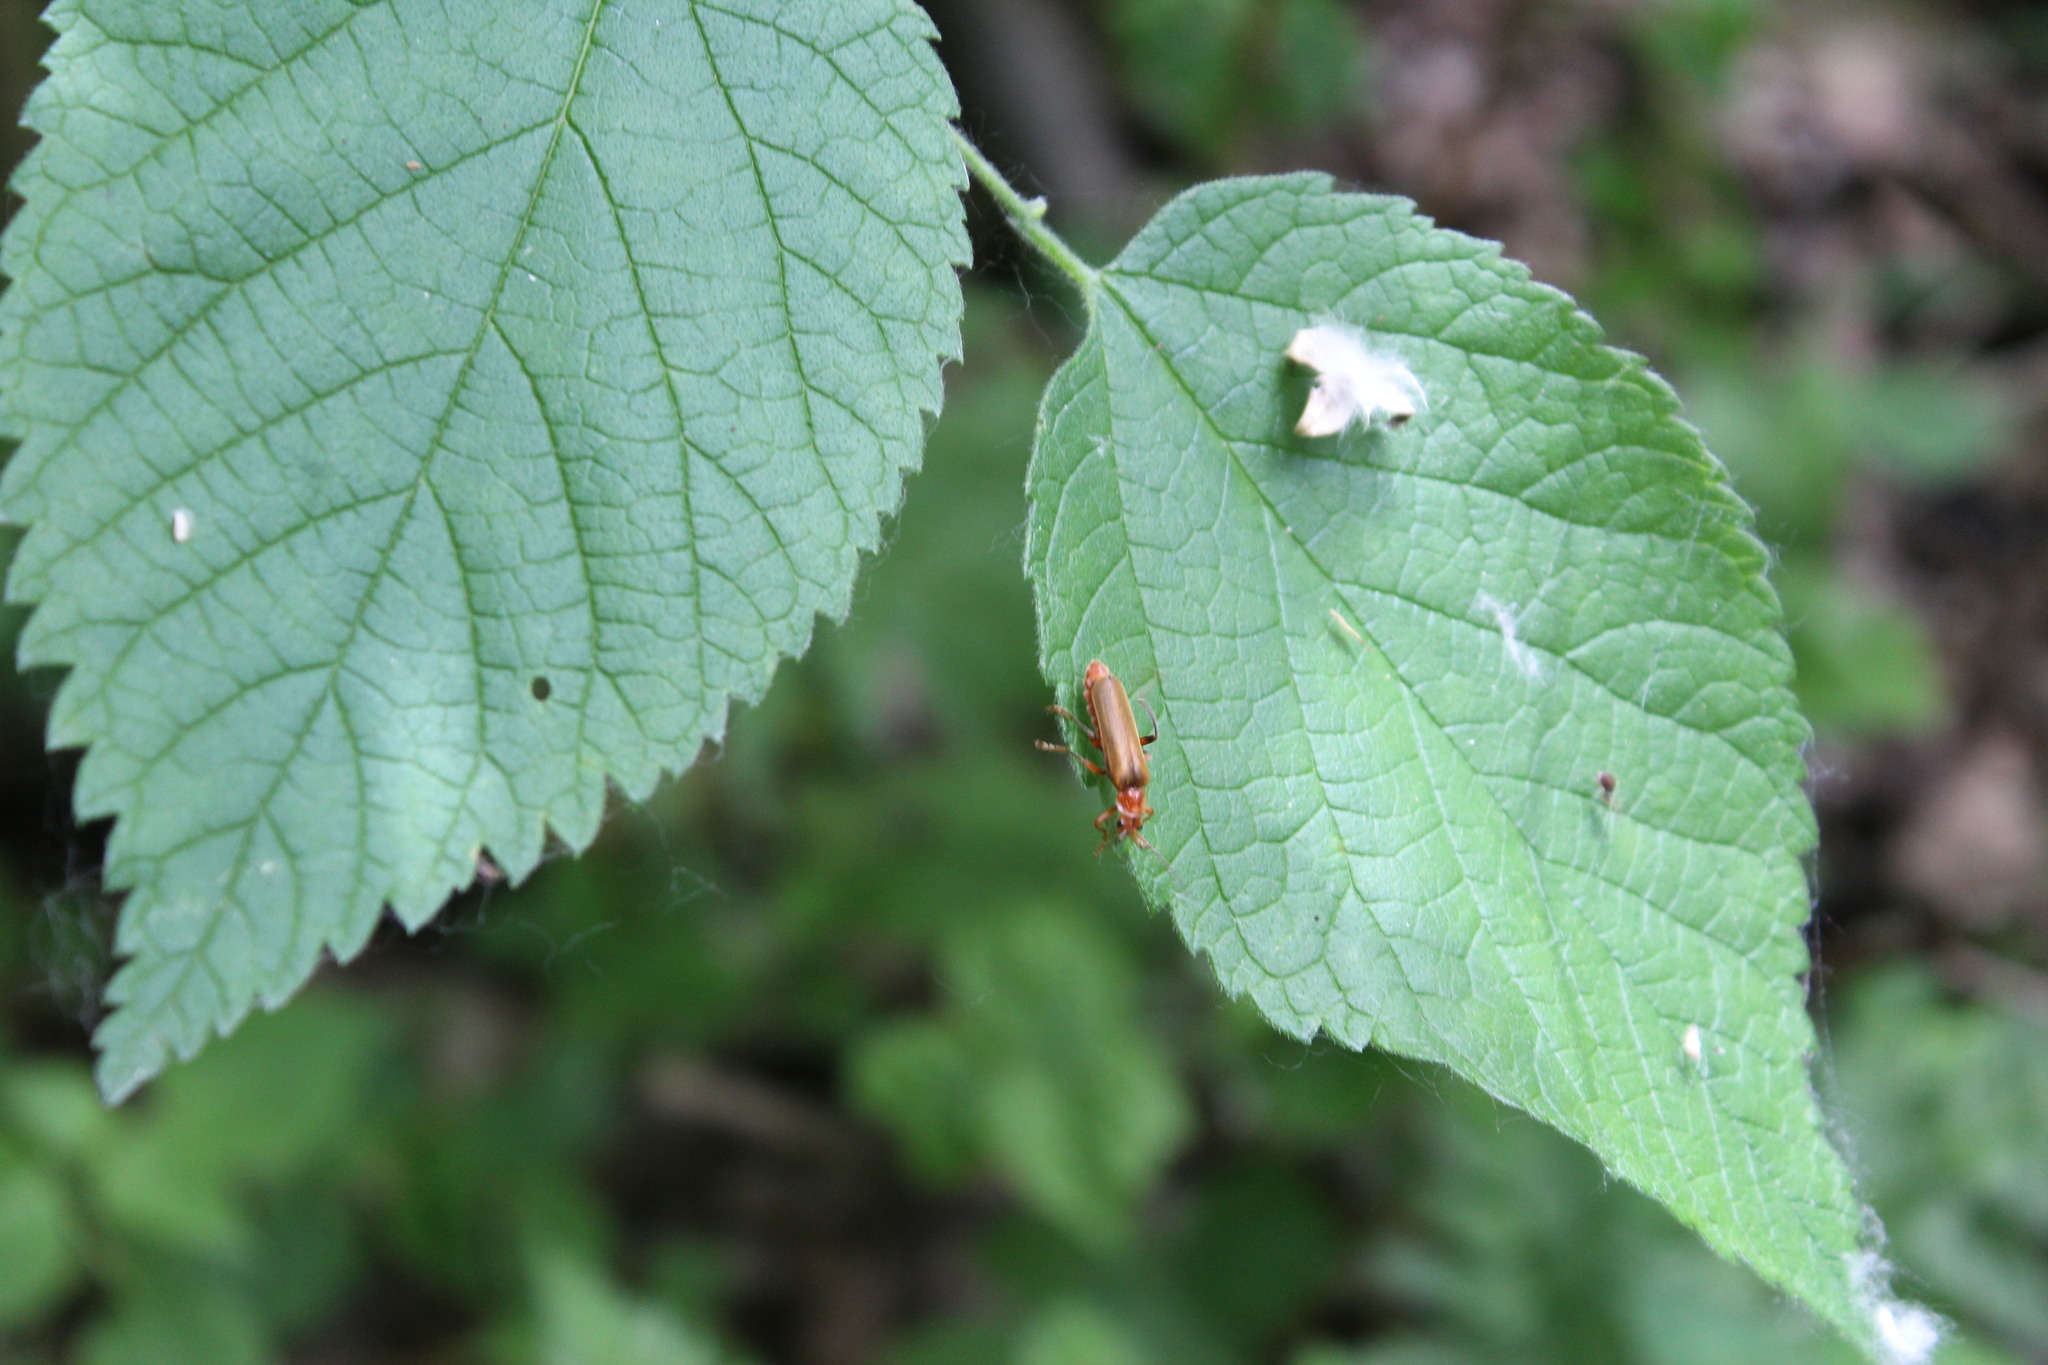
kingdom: Animalia
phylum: Arthropoda
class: Insecta
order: Coleoptera
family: Cantharidae
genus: Cantharis
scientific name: Cantharis livida
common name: Livid soldier beetle
